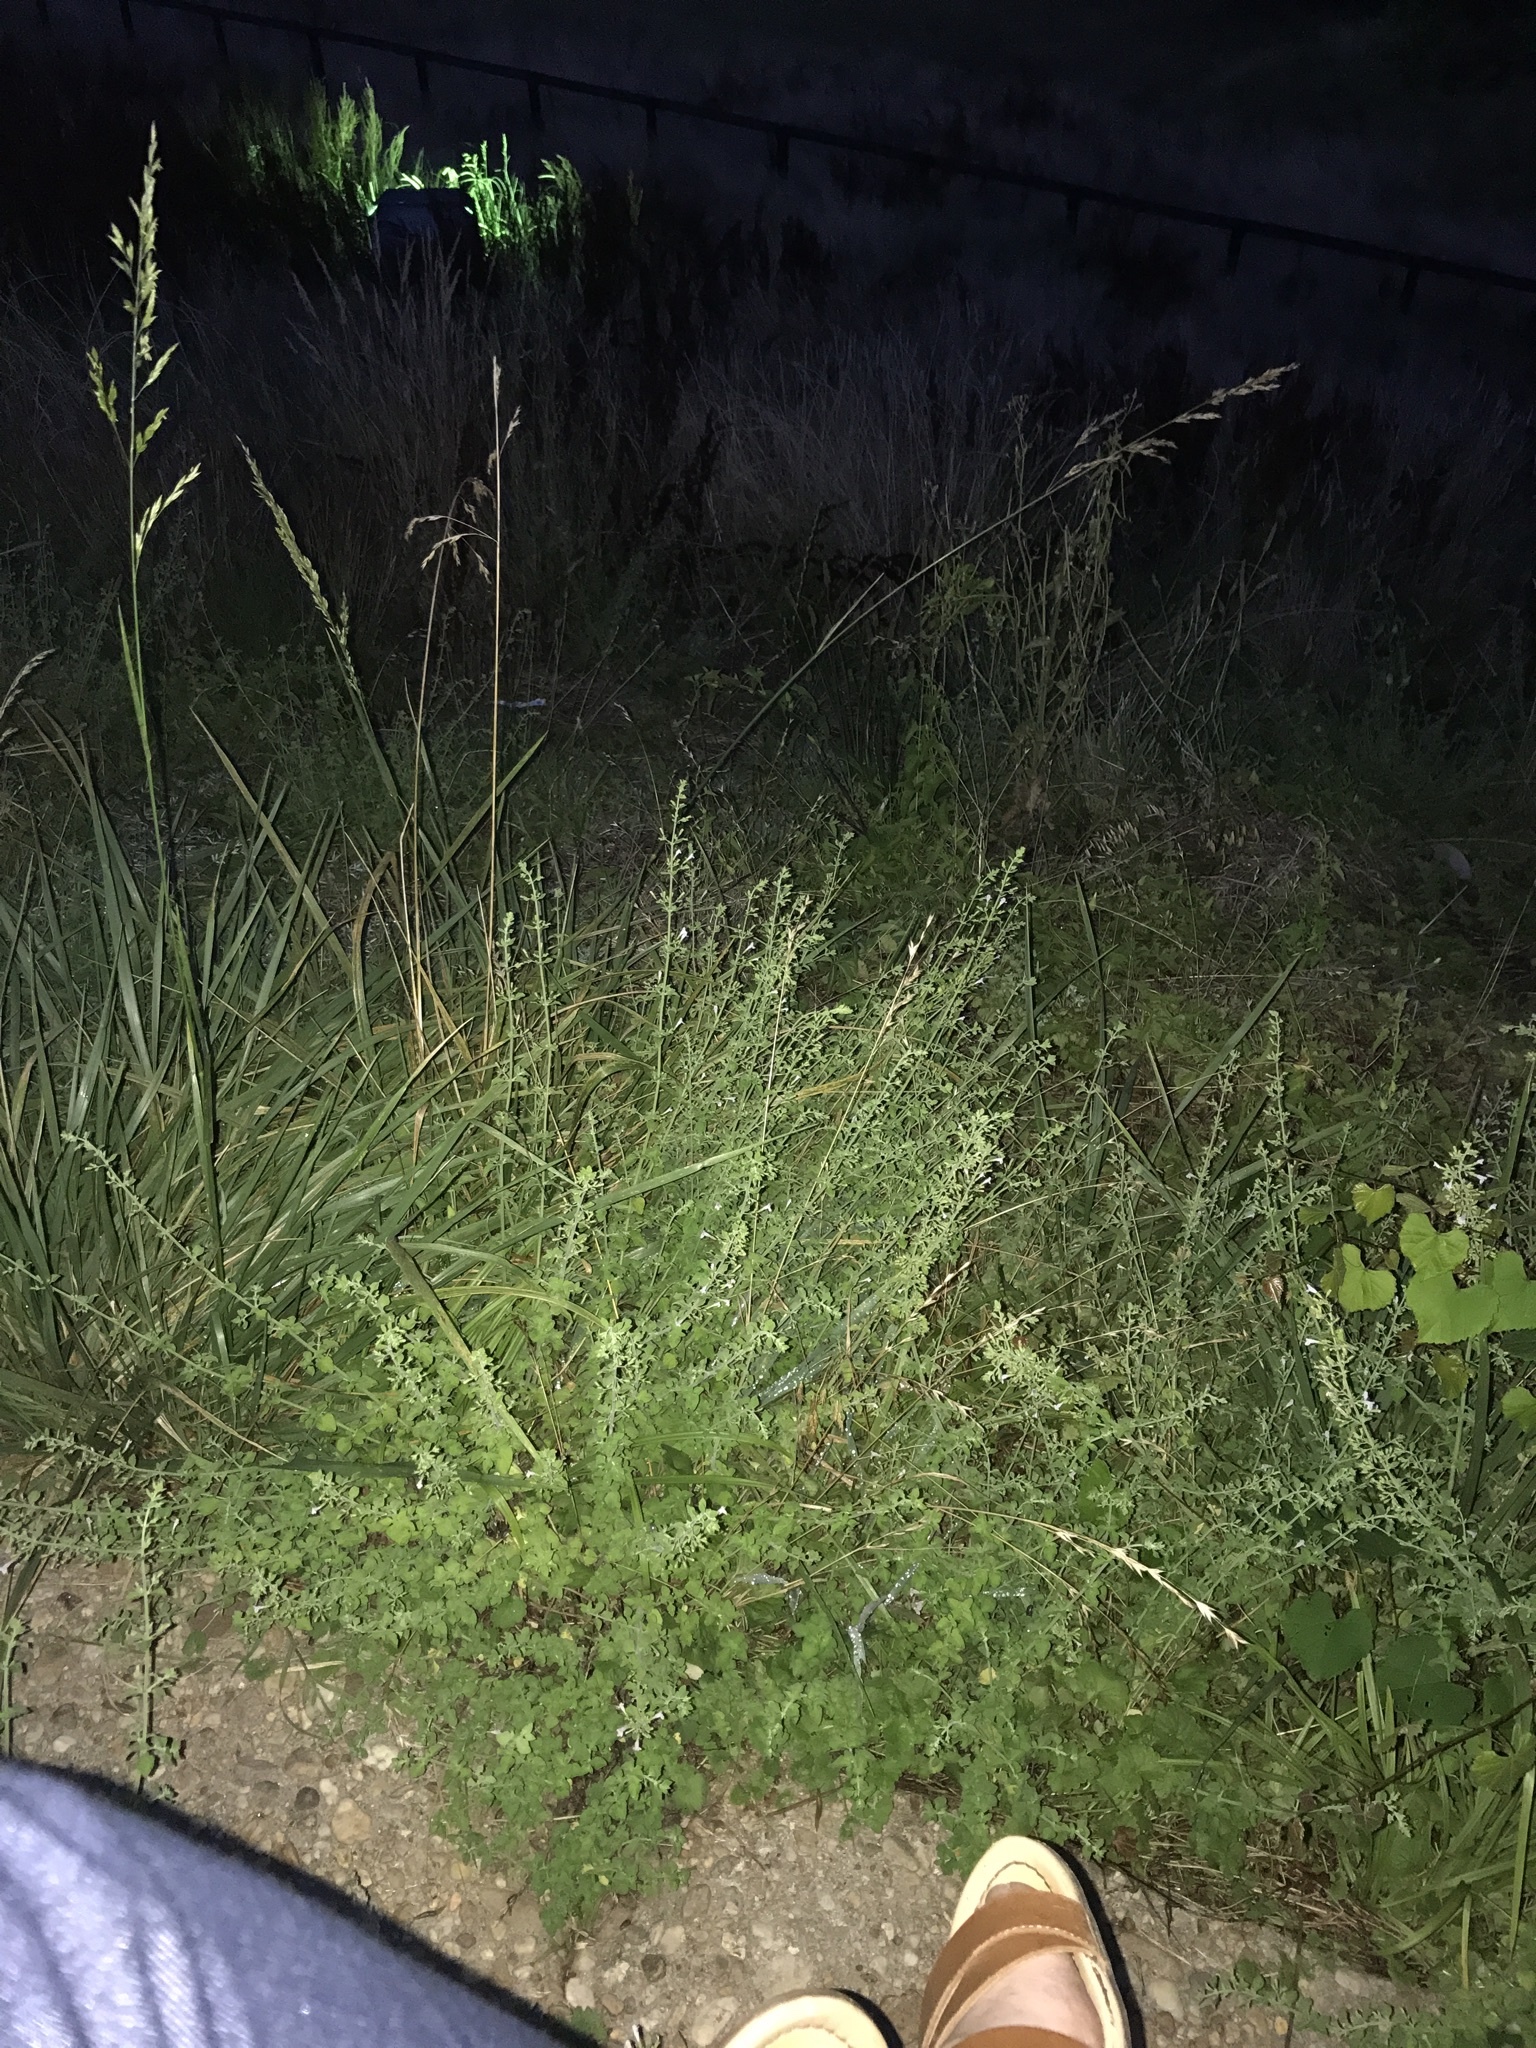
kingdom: Plantae
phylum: Tracheophyta
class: Magnoliopsida
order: Lamiales
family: Lamiaceae
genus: Clinopodium
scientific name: Clinopodium nepeta
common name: Lesser calamint
